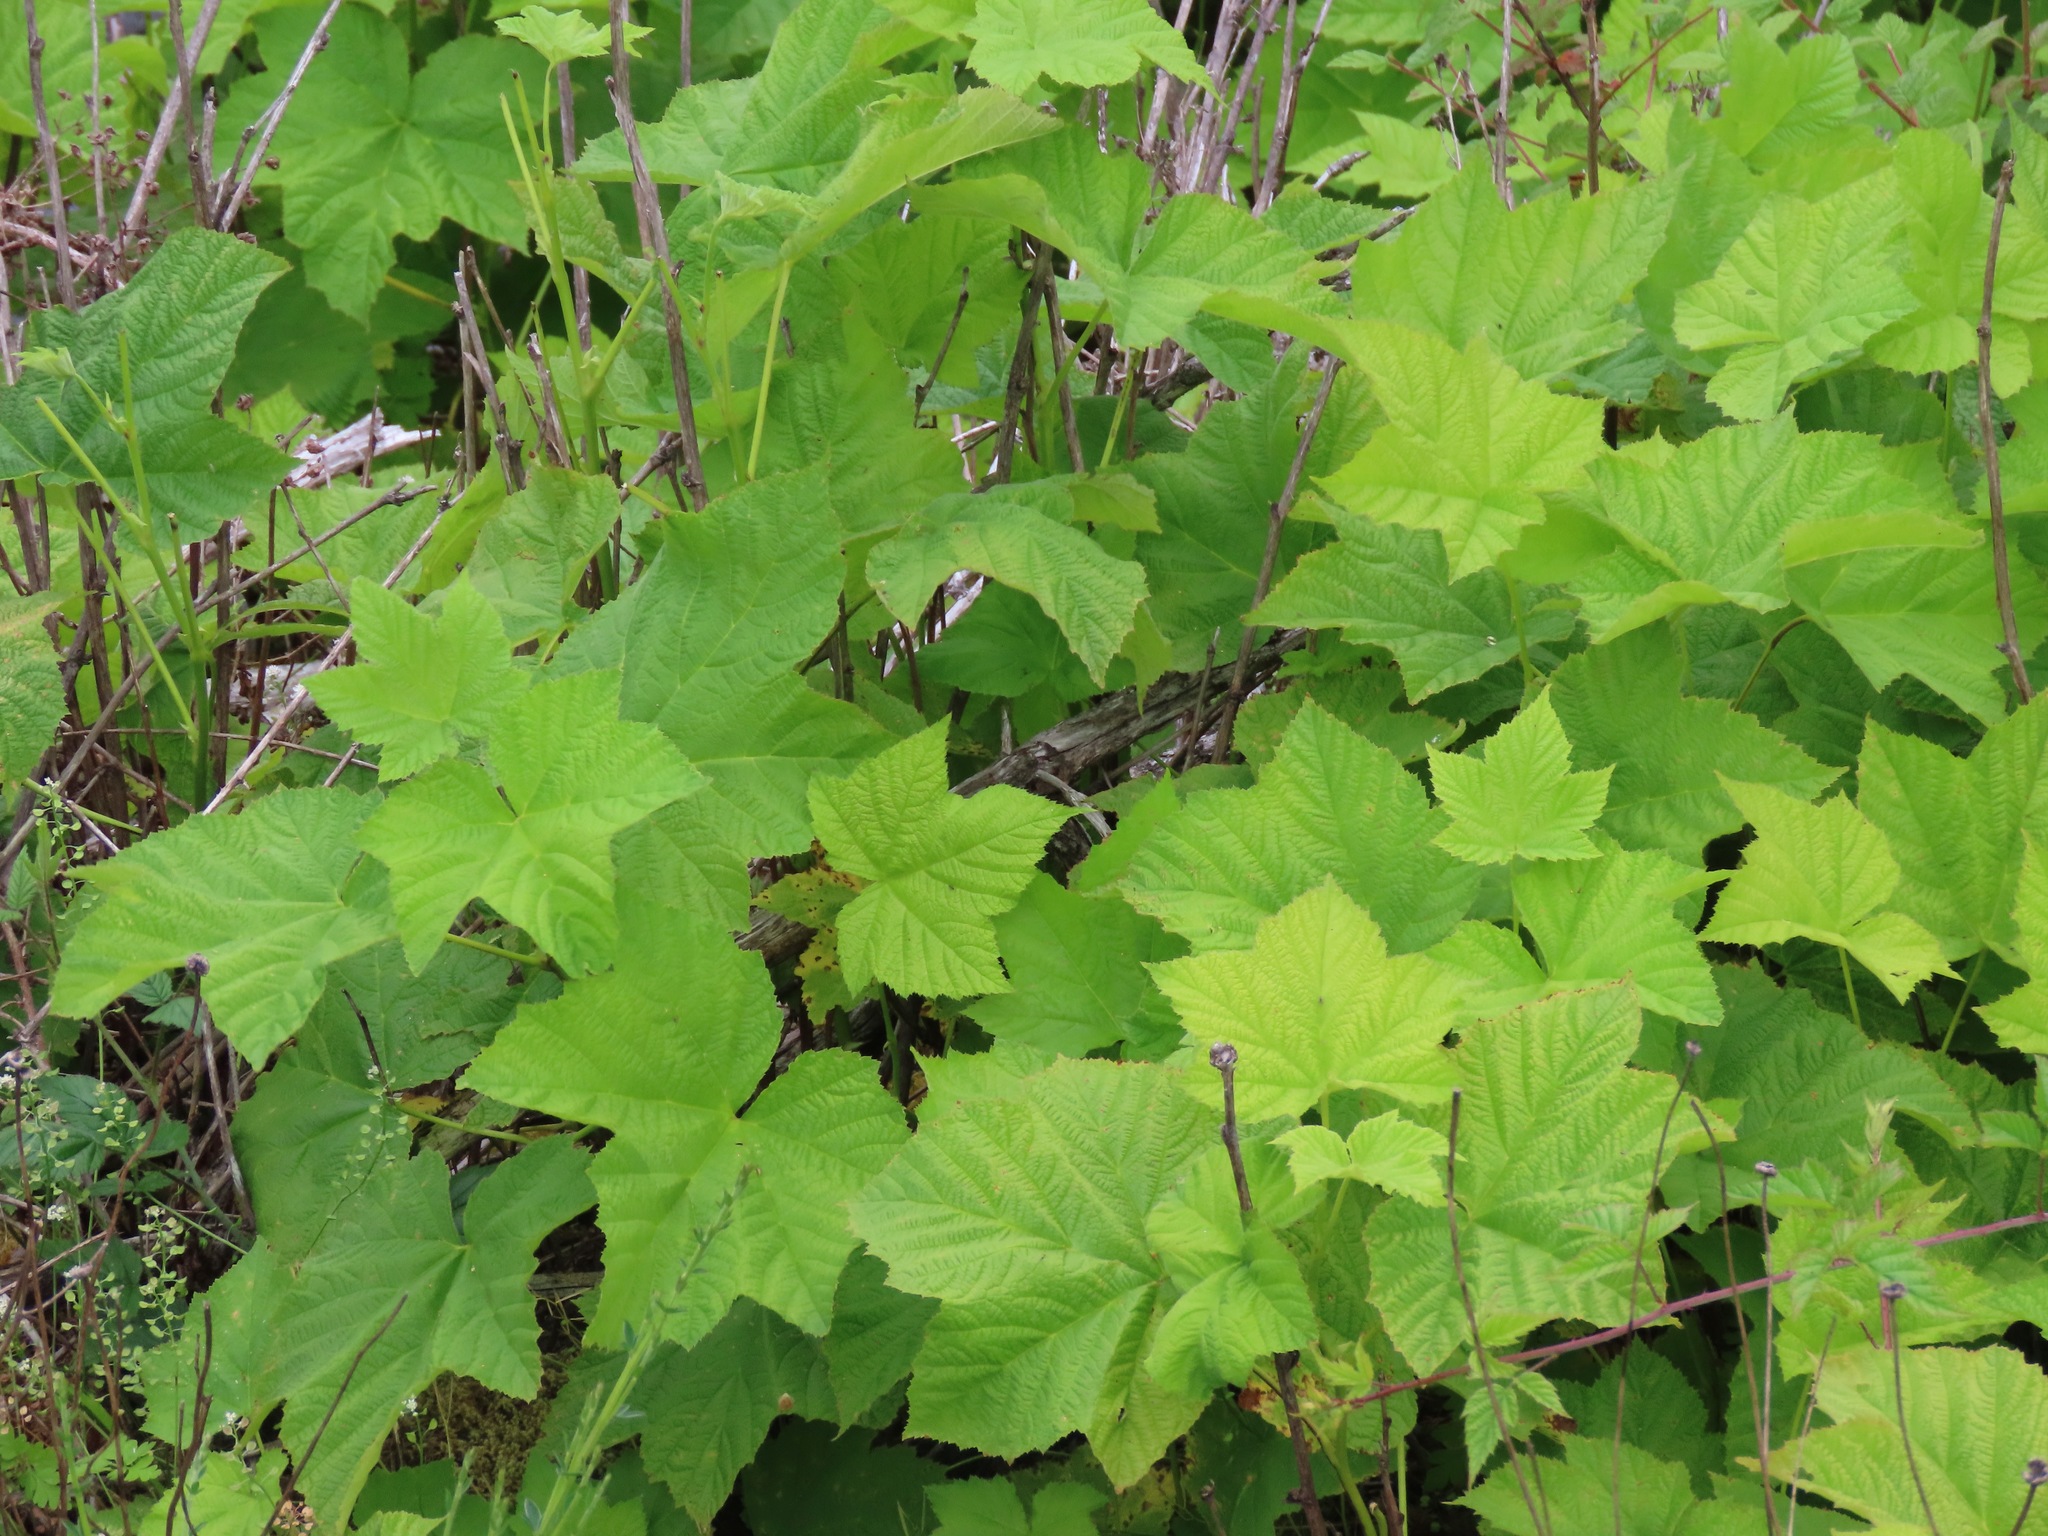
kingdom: Plantae
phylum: Tracheophyta
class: Magnoliopsida
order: Rosales
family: Rosaceae
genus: Rubus
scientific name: Rubus parviflorus
